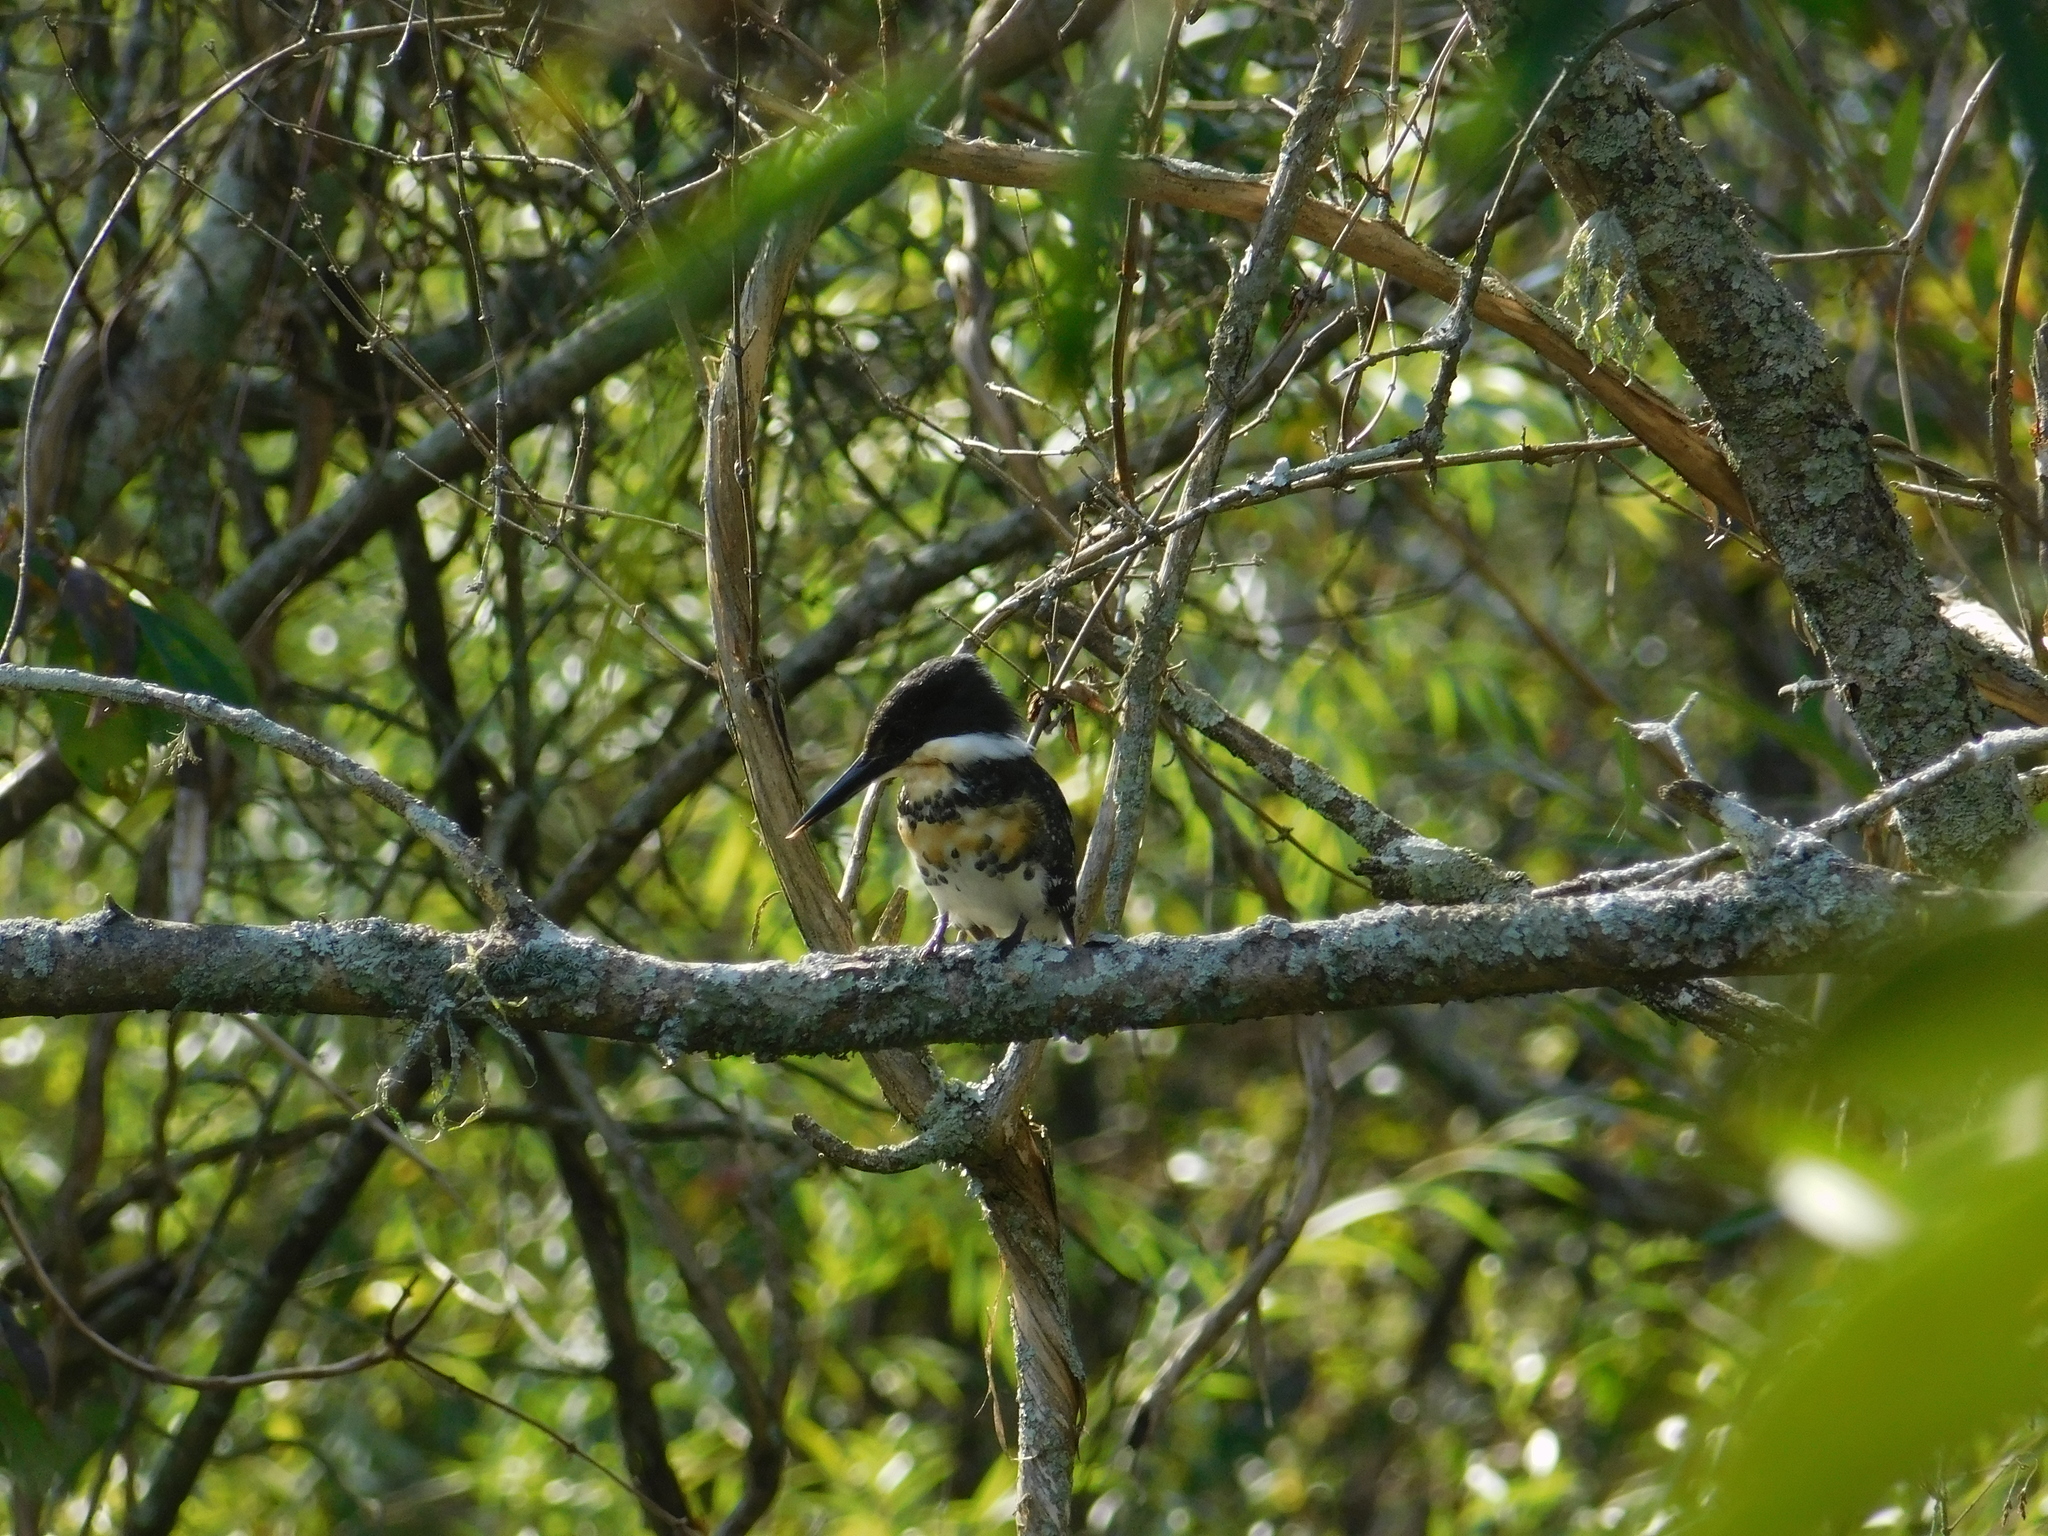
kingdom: Animalia
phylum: Chordata
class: Aves
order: Coraciiformes
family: Alcedinidae
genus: Chloroceryle
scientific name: Chloroceryle americana
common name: Green kingfisher
